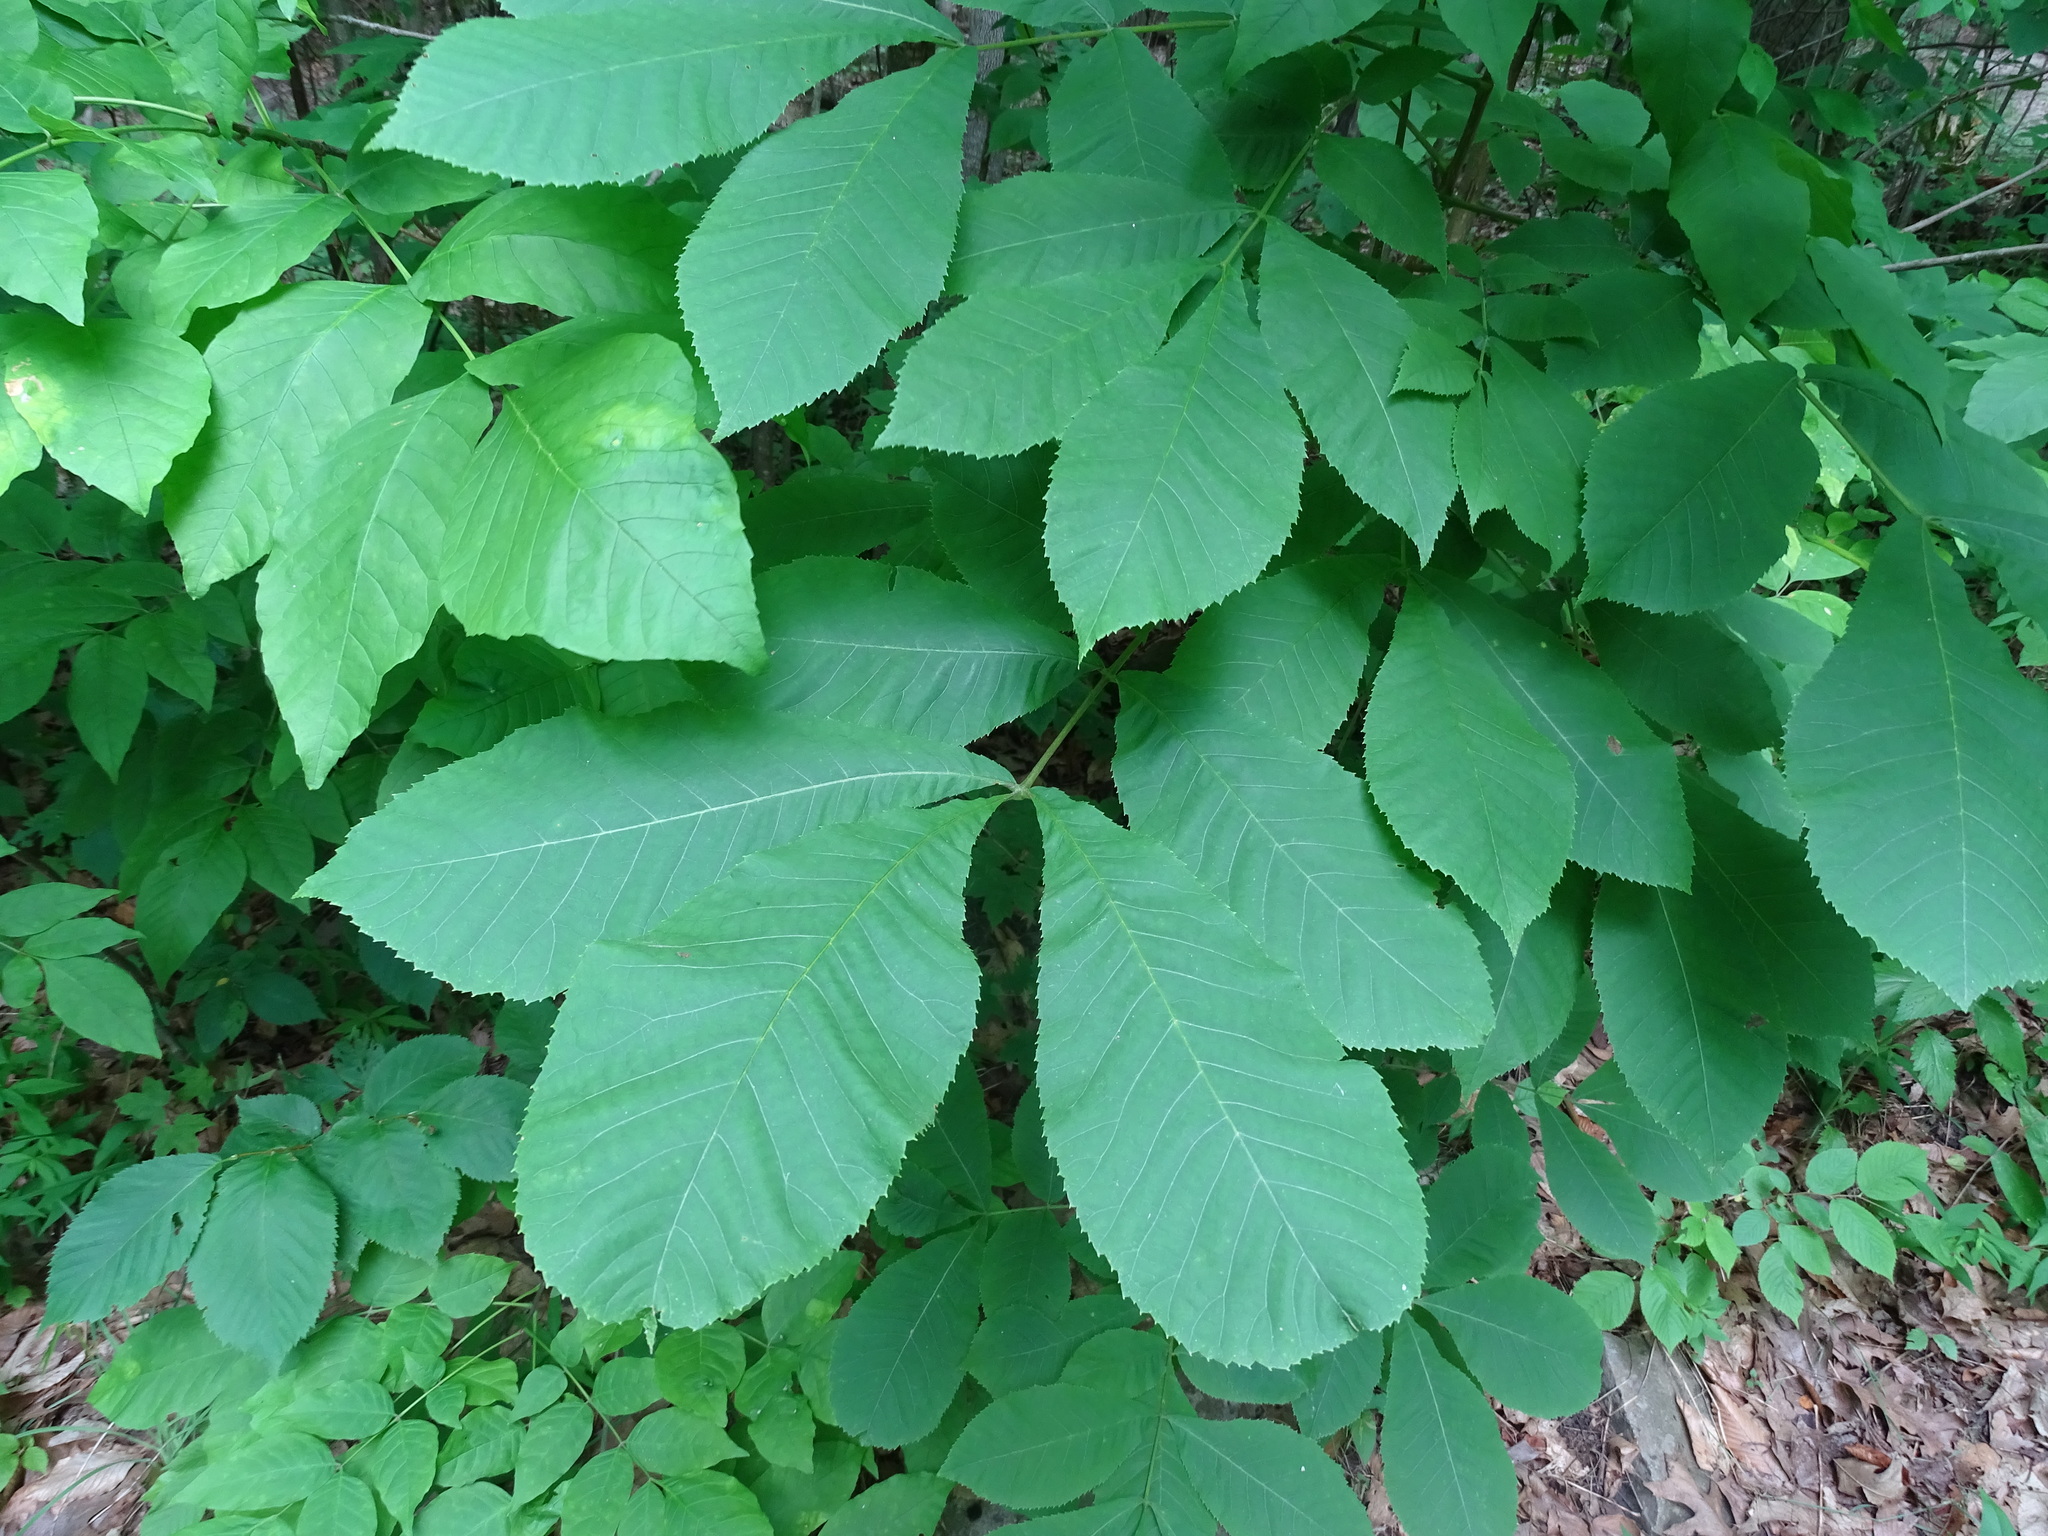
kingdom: Plantae
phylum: Tracheophyta
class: Magnoliopsida
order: Fagales
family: Juglandaceae
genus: Carya
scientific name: Carya cordiformis
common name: Bitternut hickory
